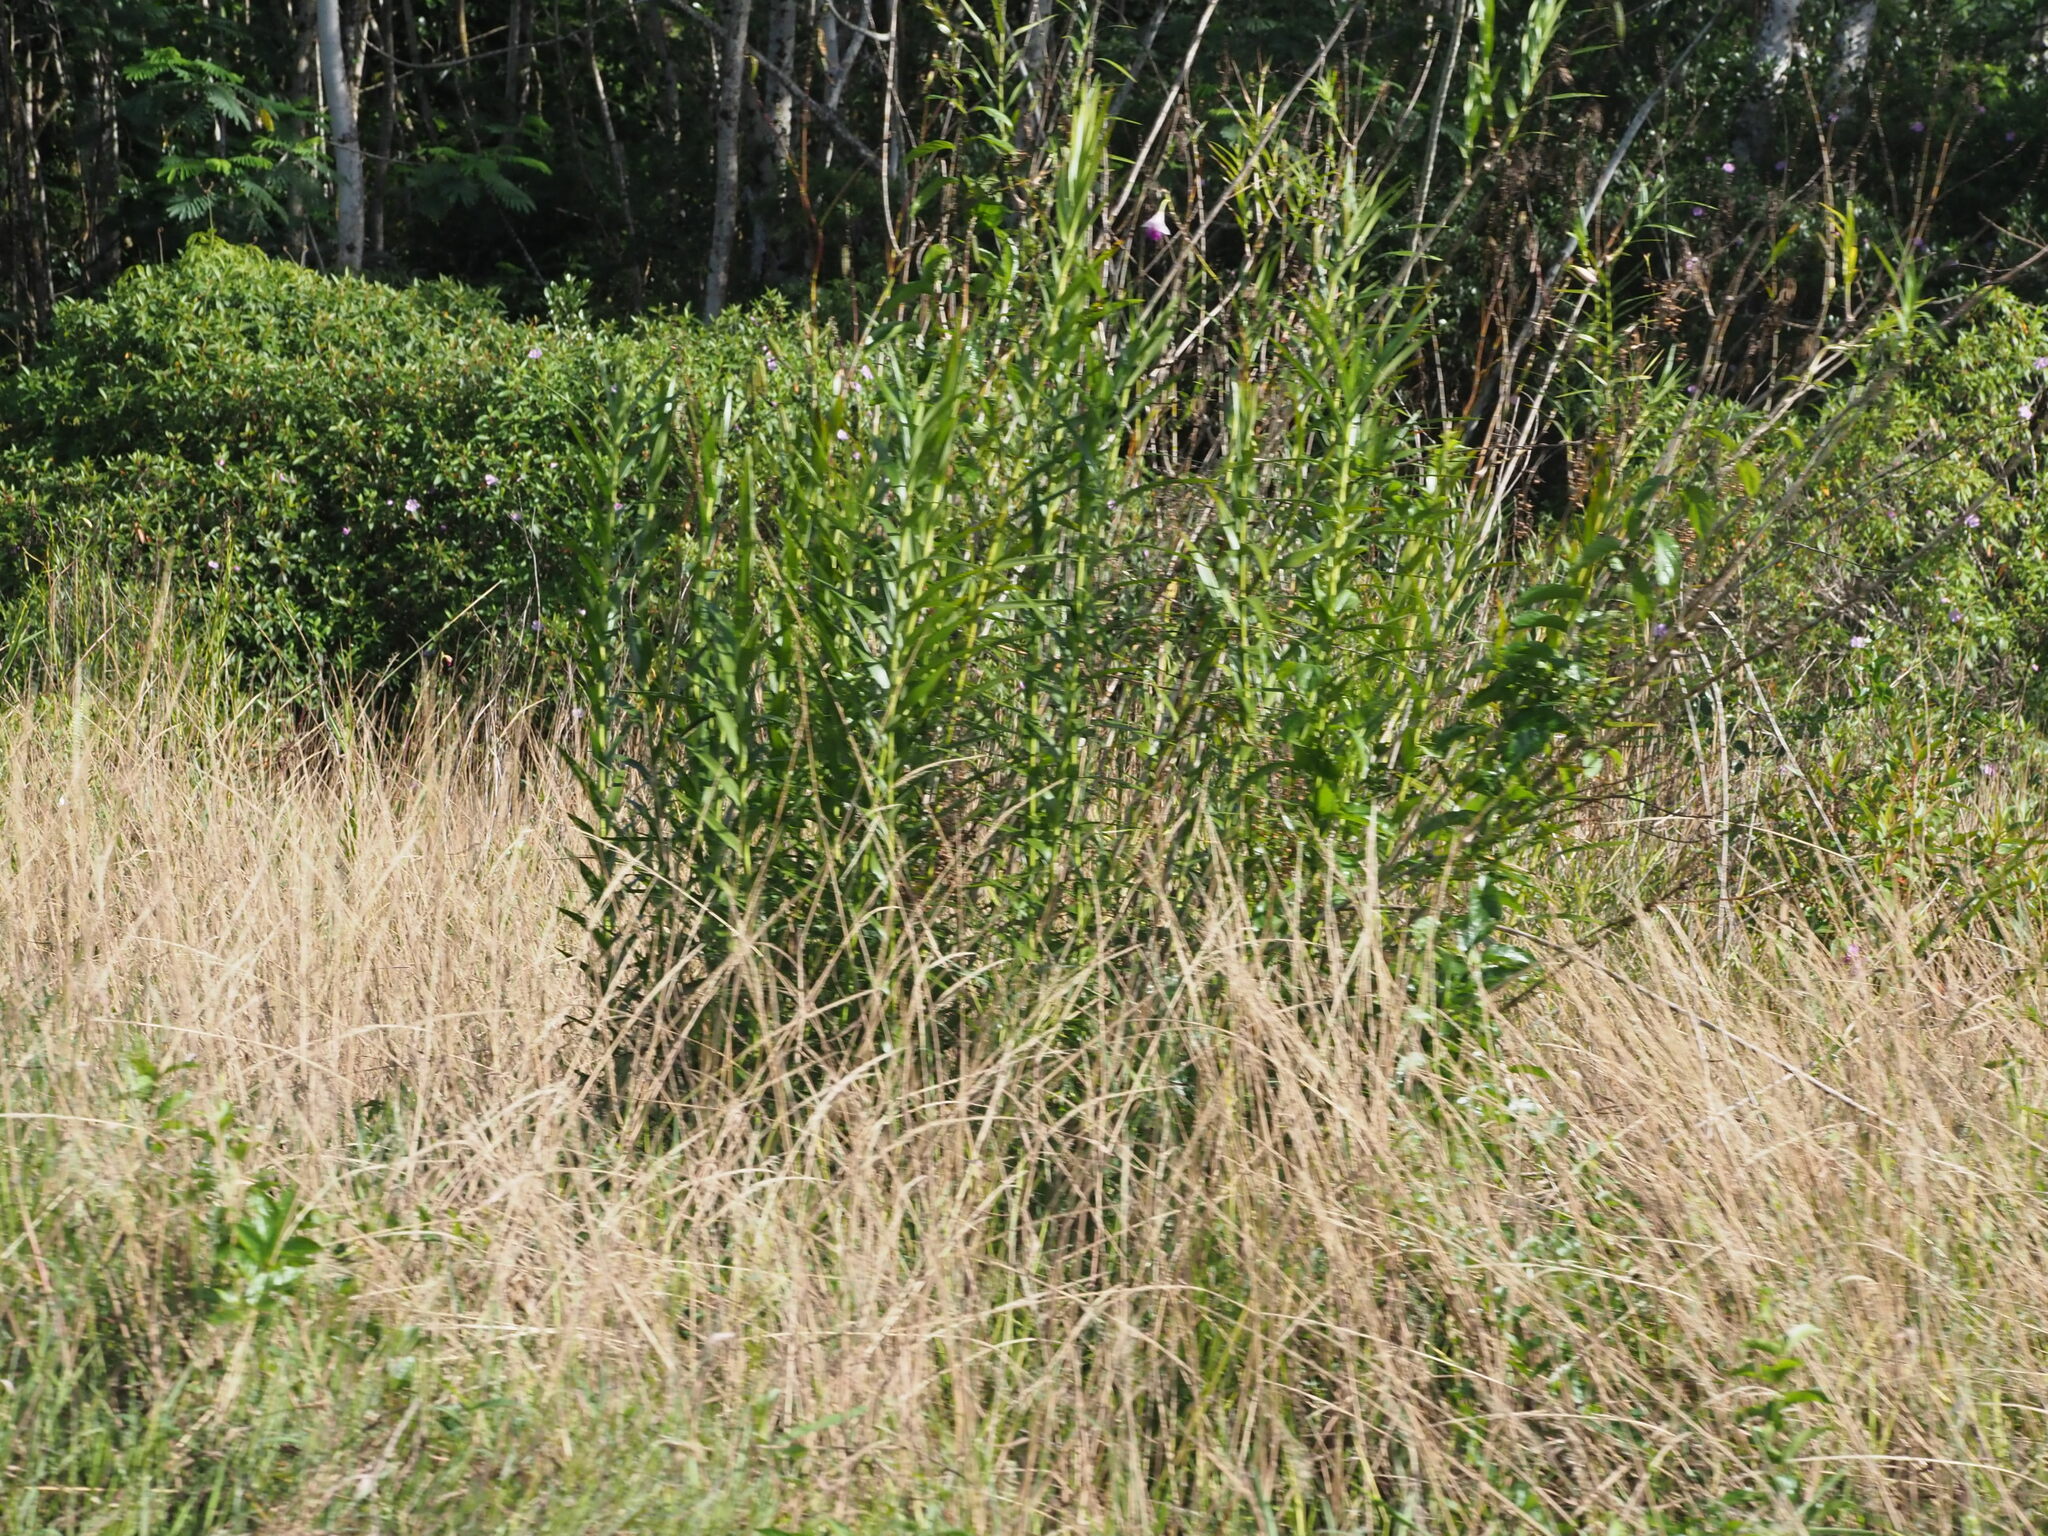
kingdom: Plantae
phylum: Tracheophyta
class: Liliopsida
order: Poales
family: Poaceae
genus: Melinis
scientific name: Melinis minutiflora
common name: Molassesgrass
